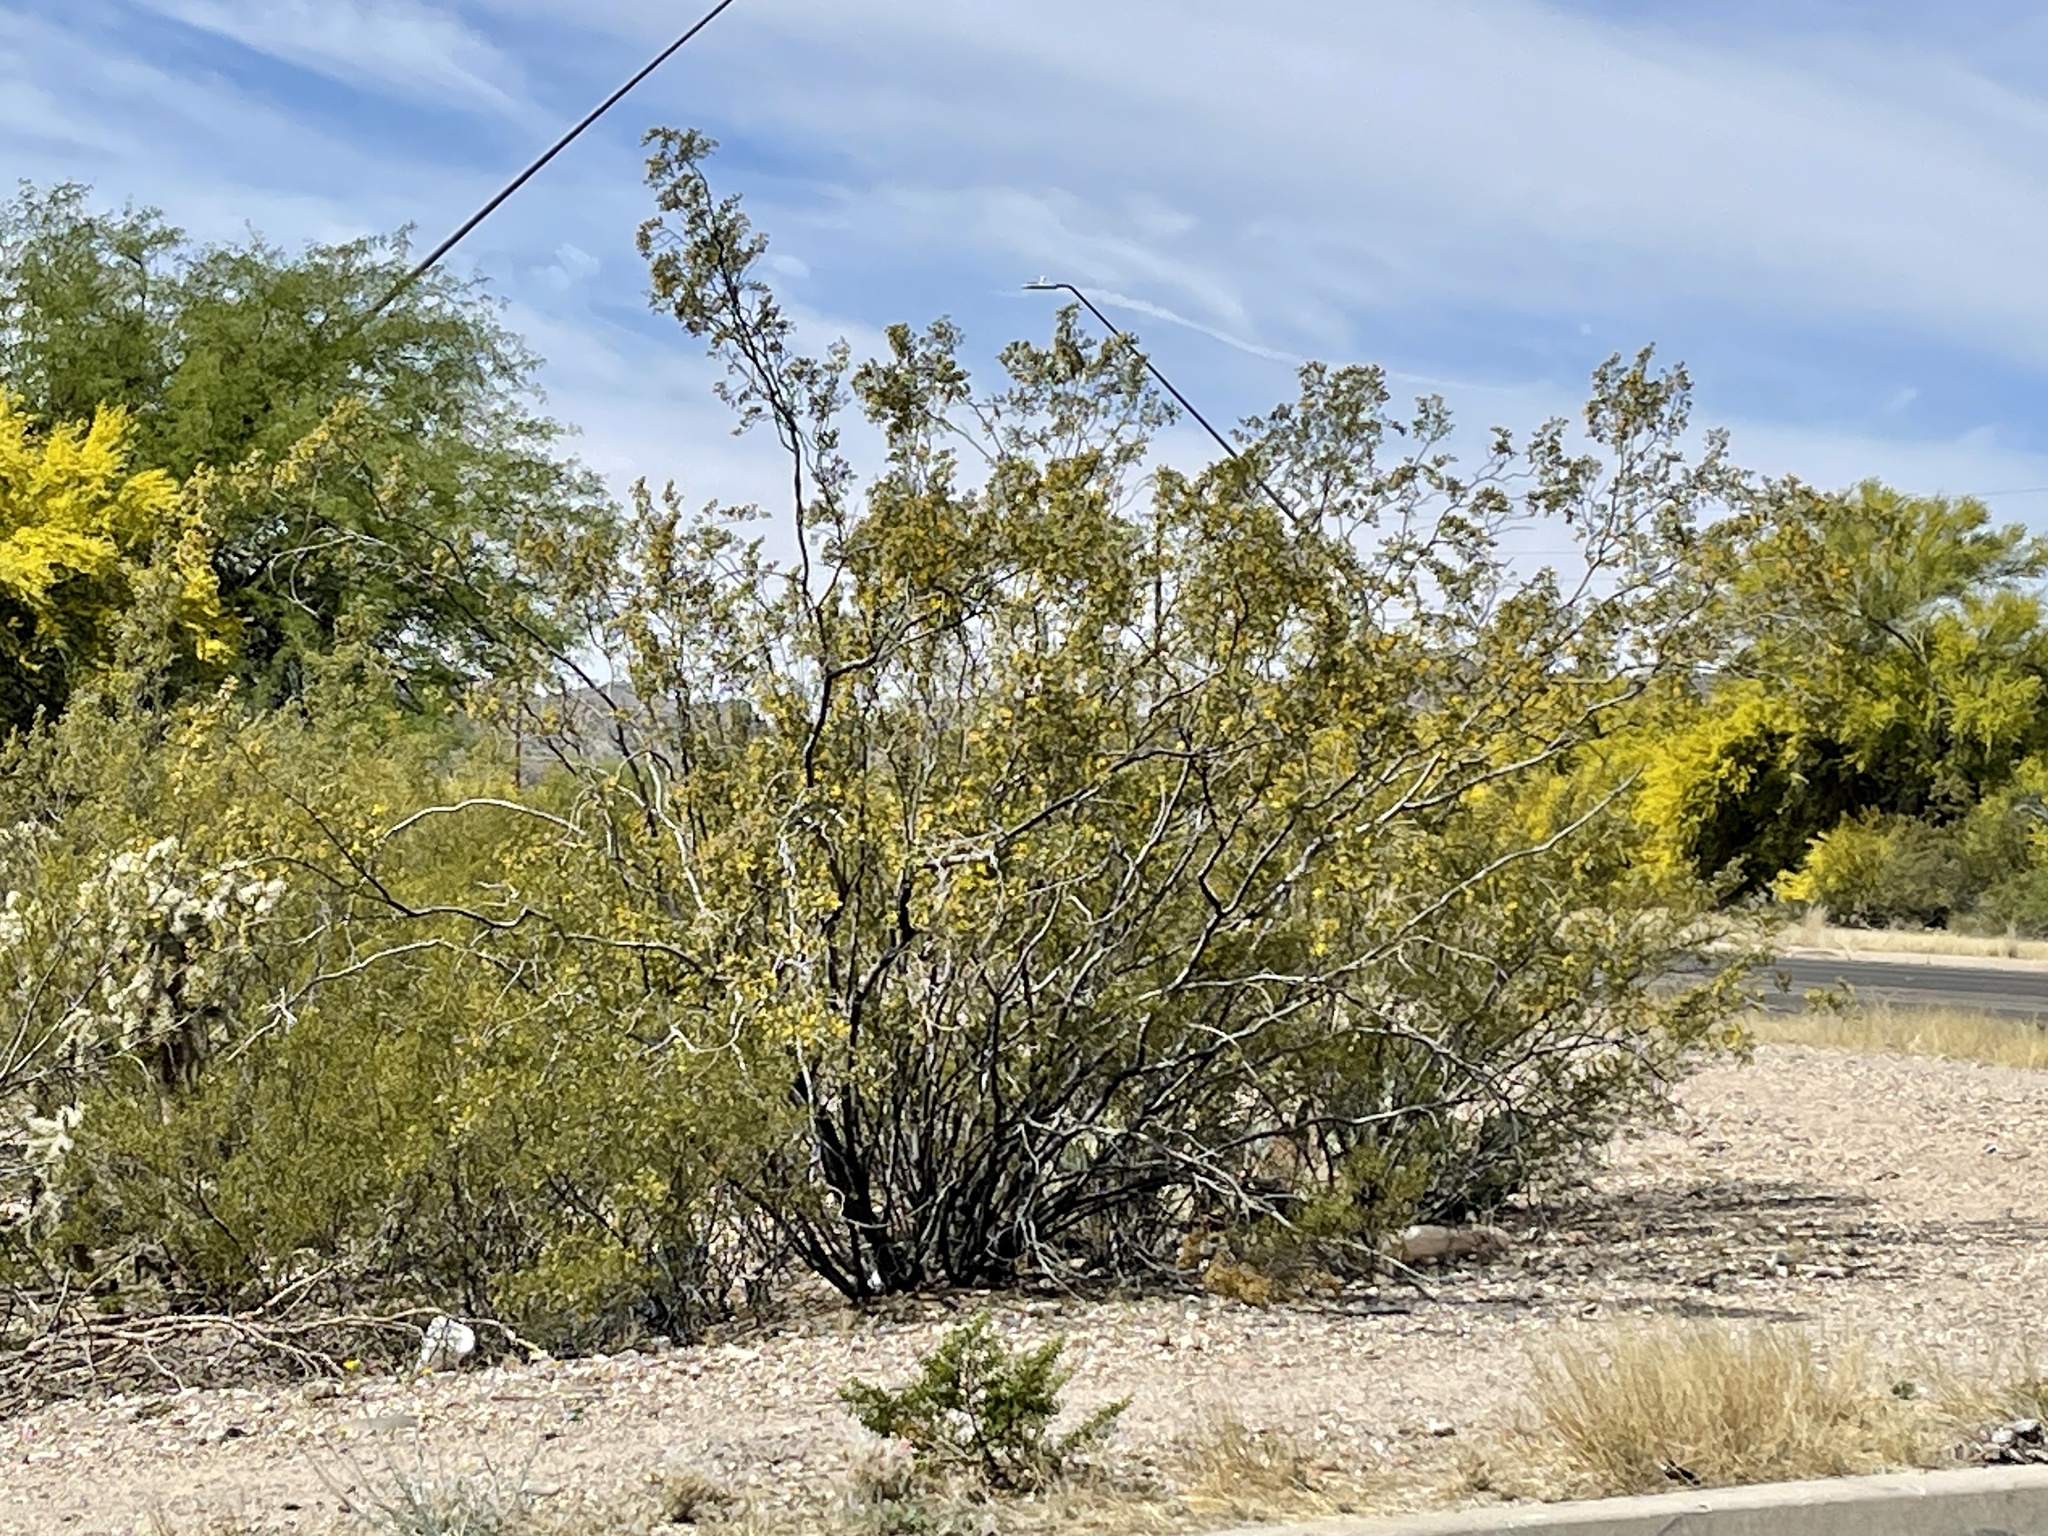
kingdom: Plantae
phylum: Tracheophyta
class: Magnoliopsida
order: Zygophyllales
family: Zygophyllaceae
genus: Larrea
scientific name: Larrea tridentata
